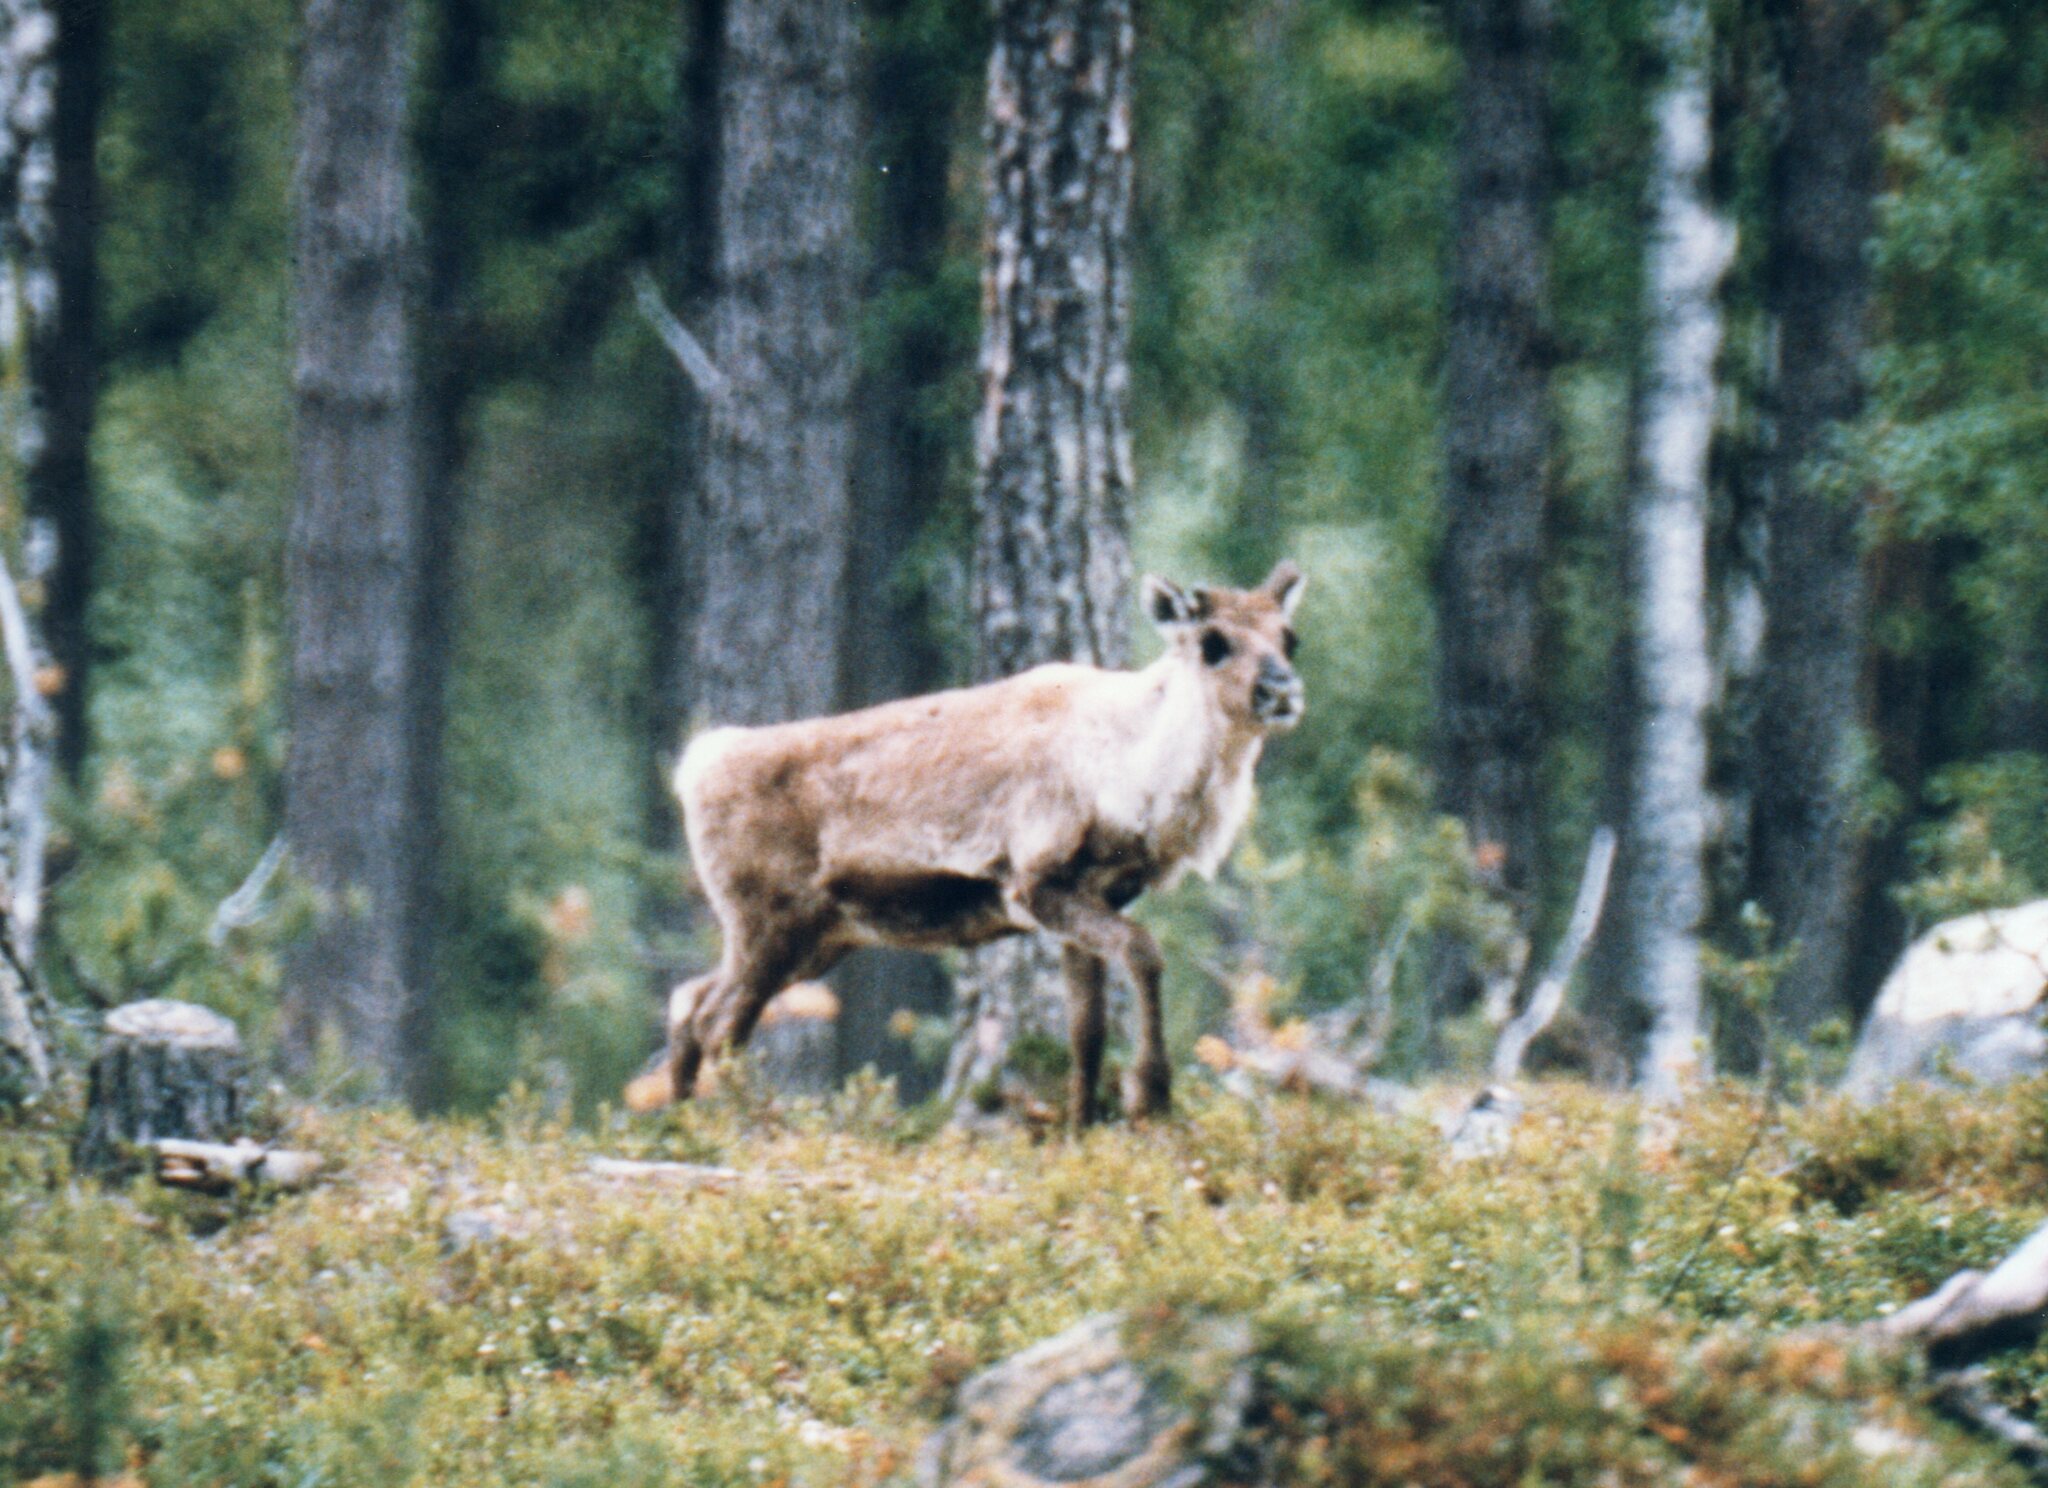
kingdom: Animalia
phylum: Chordata
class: Mammalia
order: Artiodactyla
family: Cervidae
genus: Rangifer
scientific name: Rangifer tarandus
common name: Reindeer
